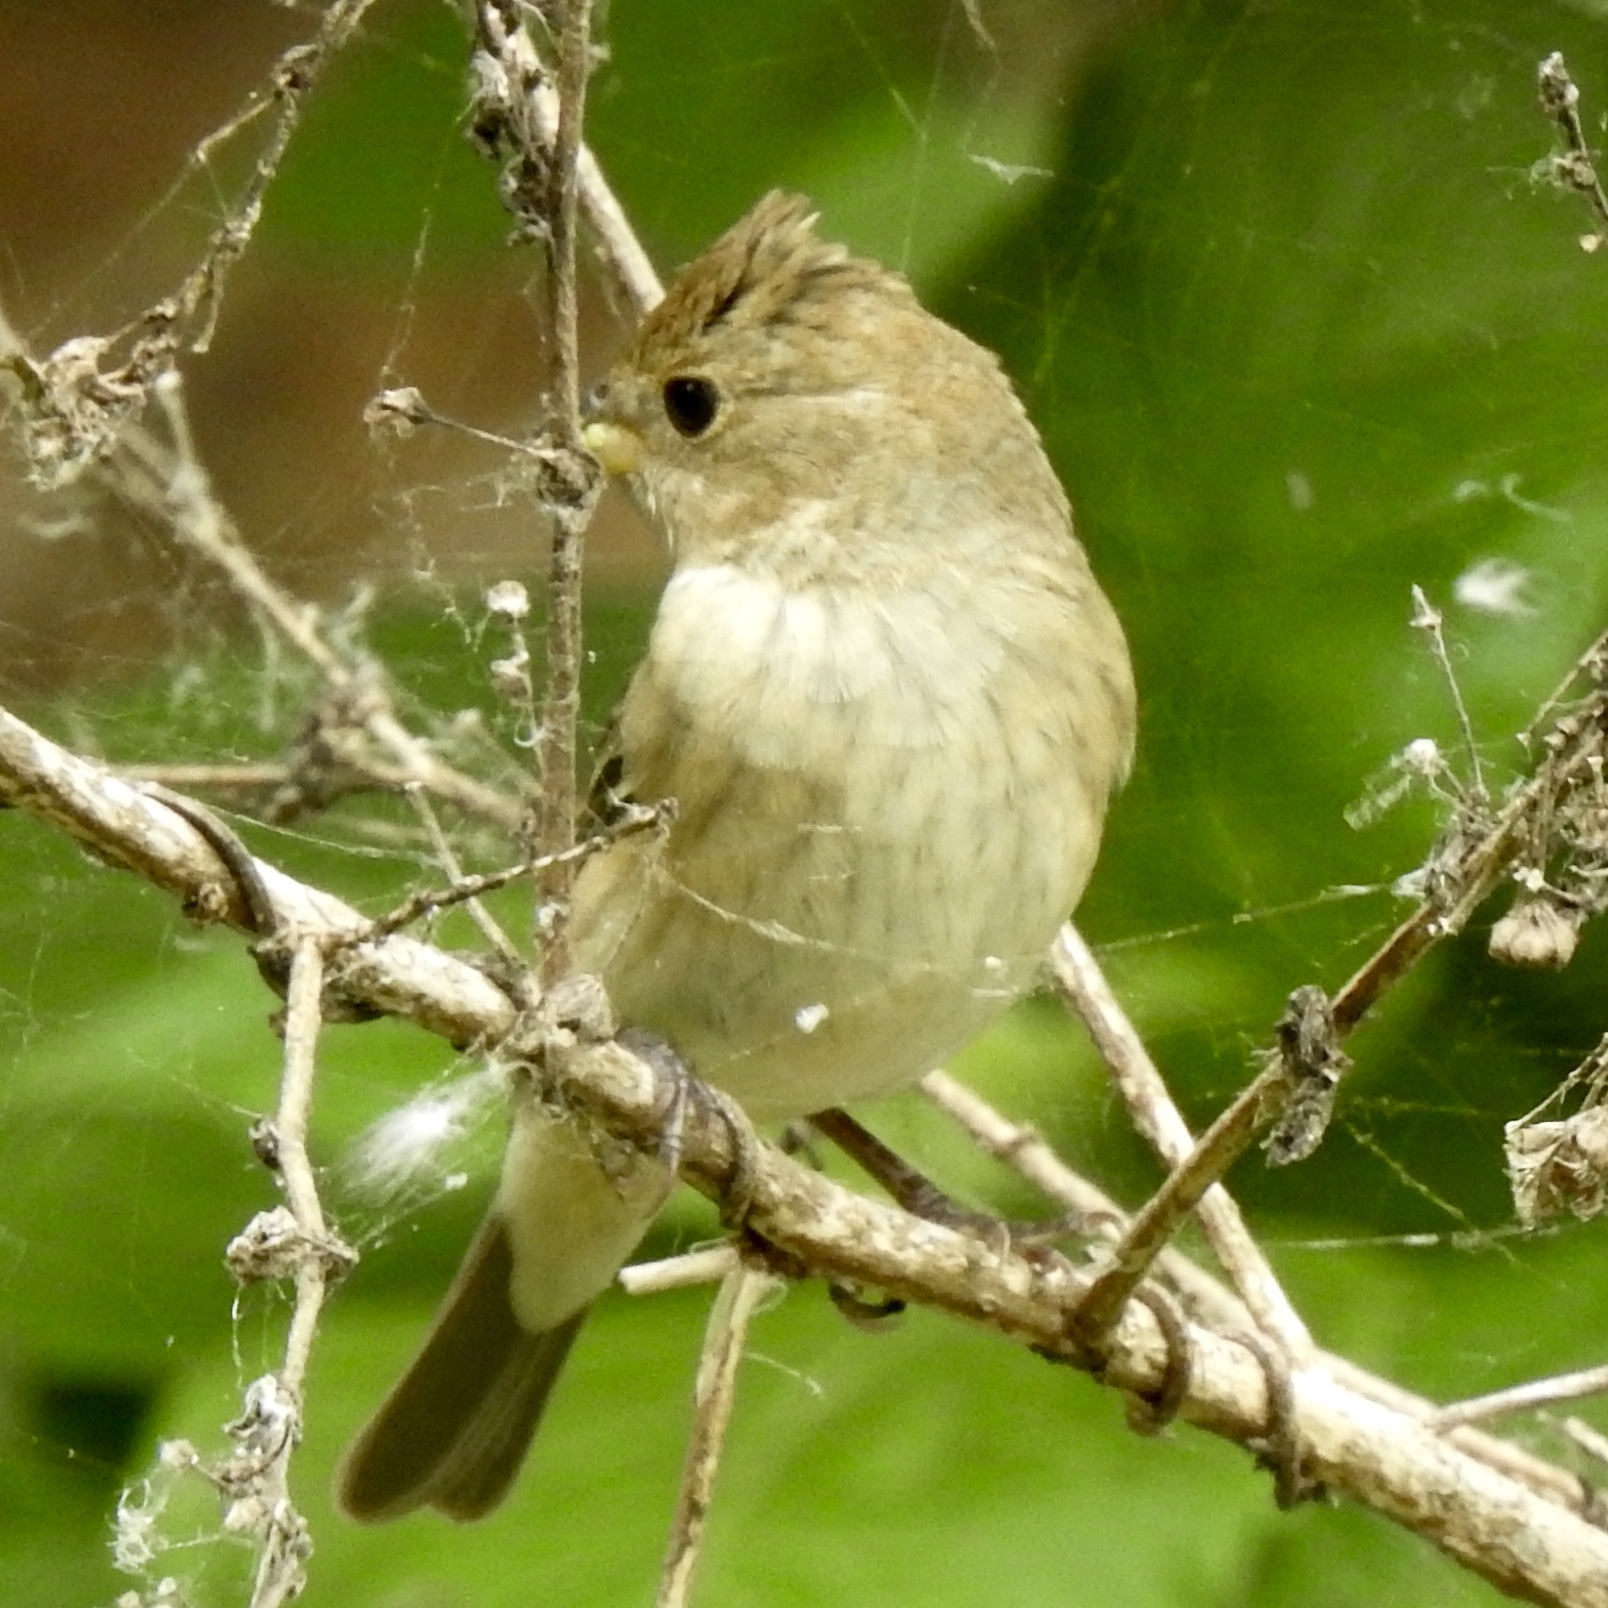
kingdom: Animalia
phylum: Chordata
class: Aves
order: Passeriformes
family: Cardinalidae
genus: Passerina
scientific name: Passerina cyanea
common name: Indigo bunting
